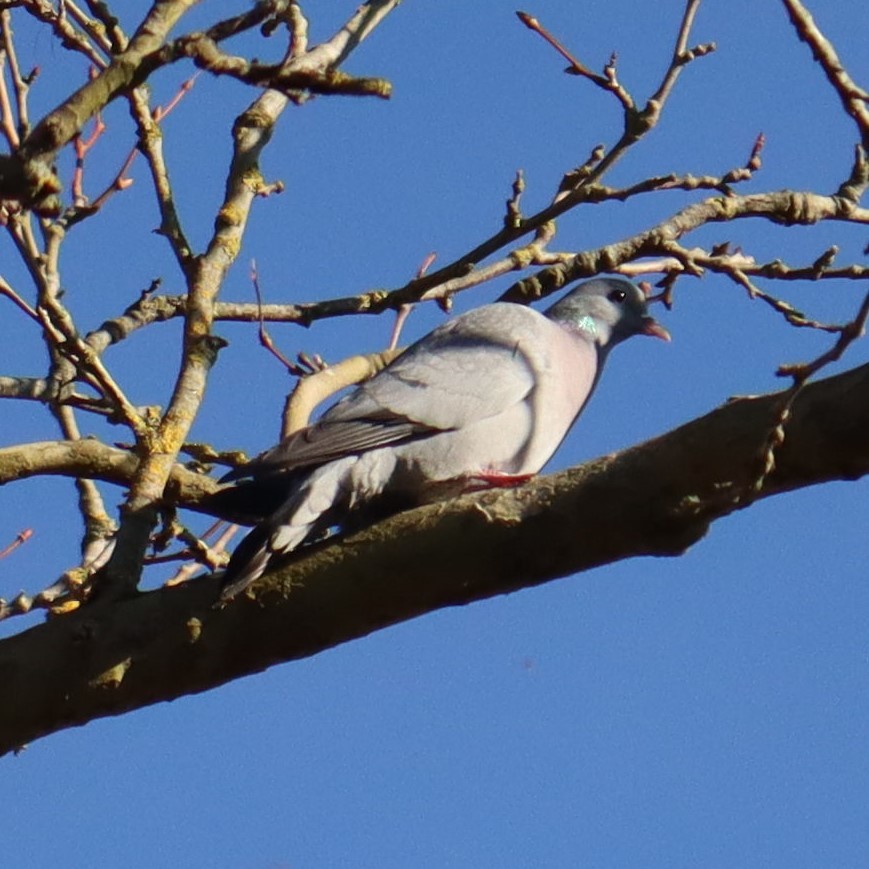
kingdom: Animalia
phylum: Chordata
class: Aves
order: Columbiformes
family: Columbidae
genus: Columba
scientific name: Columba oenas
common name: Stock dove
